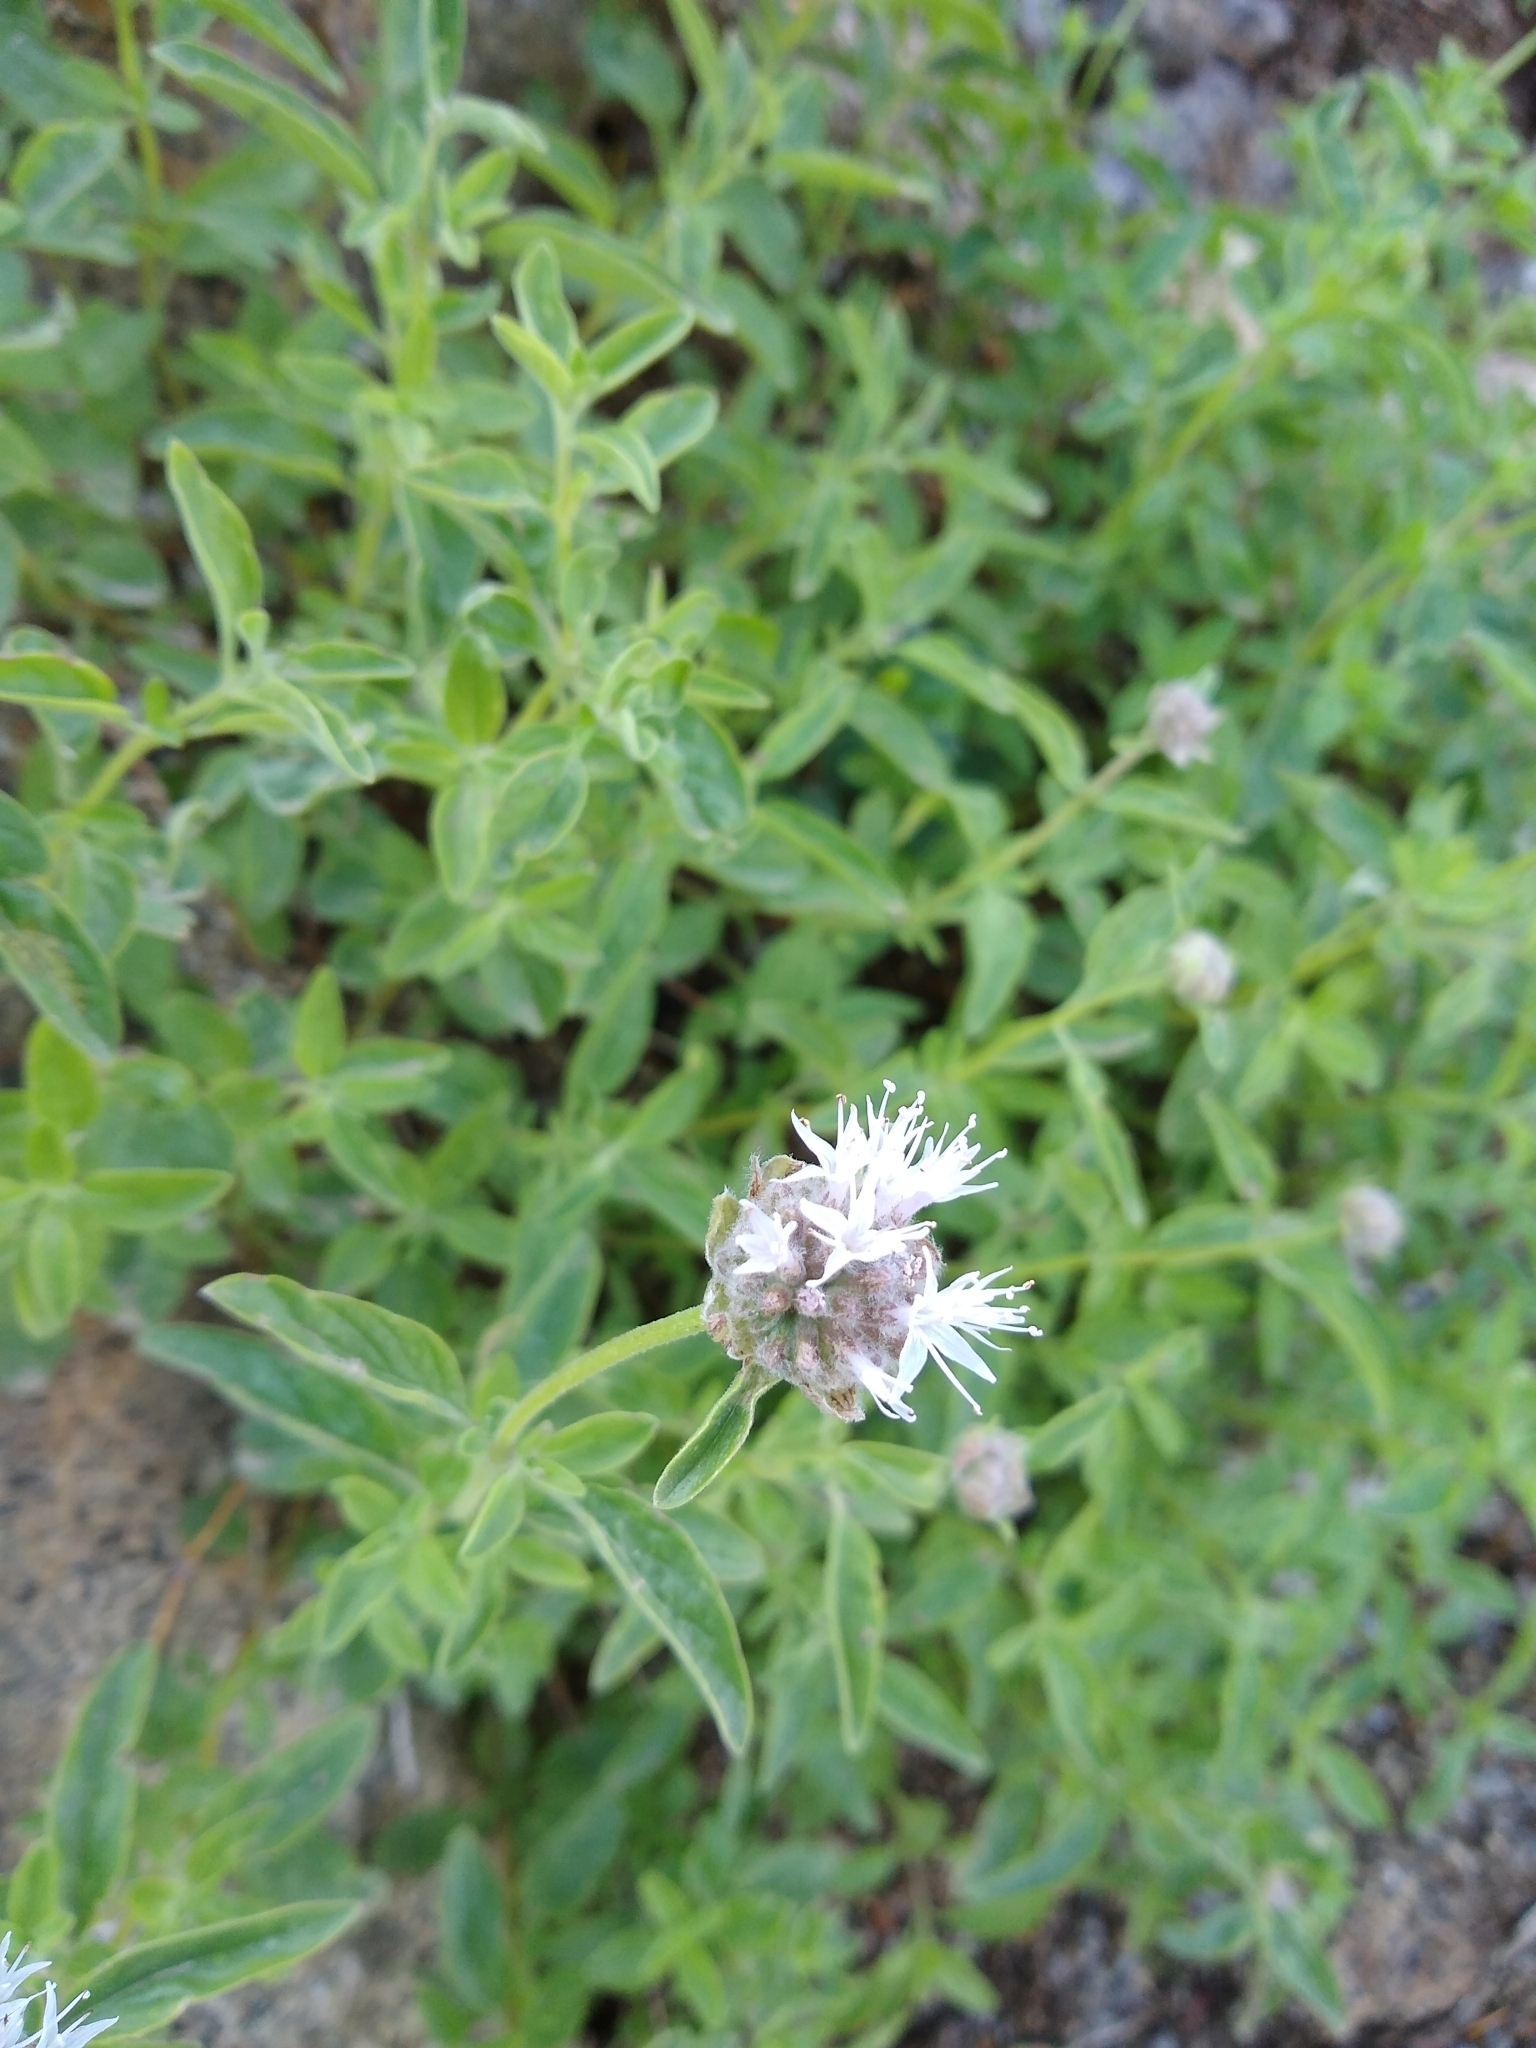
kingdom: Plantae
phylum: Tracheophyta
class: Magnoliopsida
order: Lamiales
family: Lamiaceae
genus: Monardella
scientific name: Monardella odoratissima
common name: Pacific monardella
